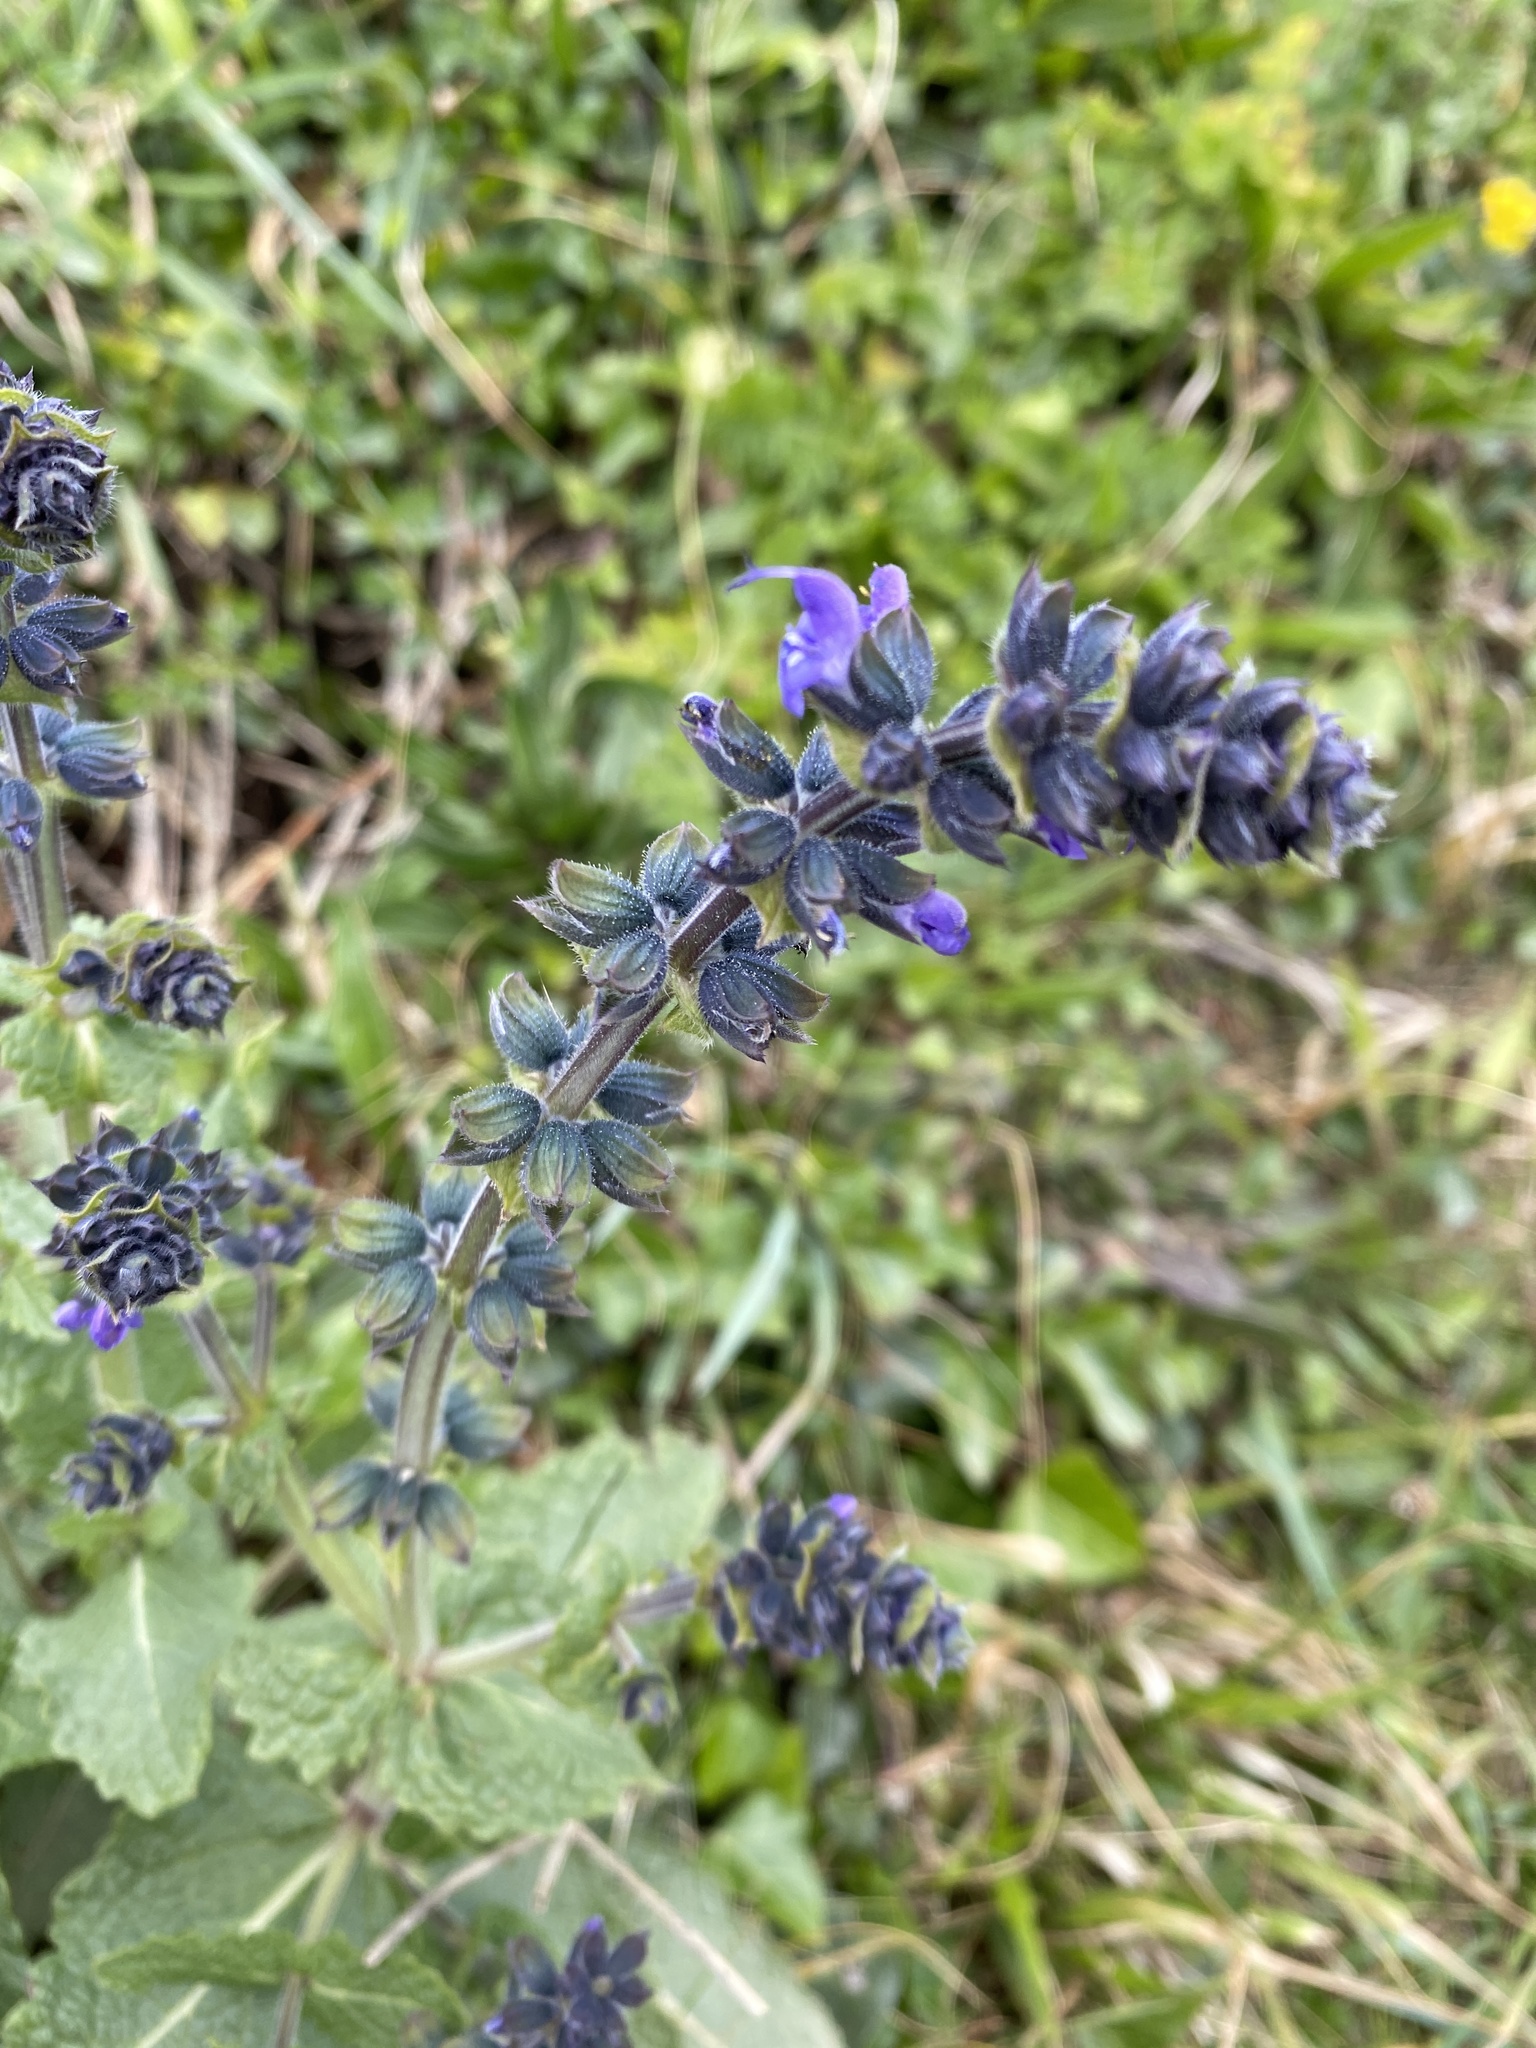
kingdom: Plantae
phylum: Tracheophyta
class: Magnoliopsida
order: Lamiales
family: Lamiaceae
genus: Salvia
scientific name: Salvia verbenaca
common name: Wild clary
